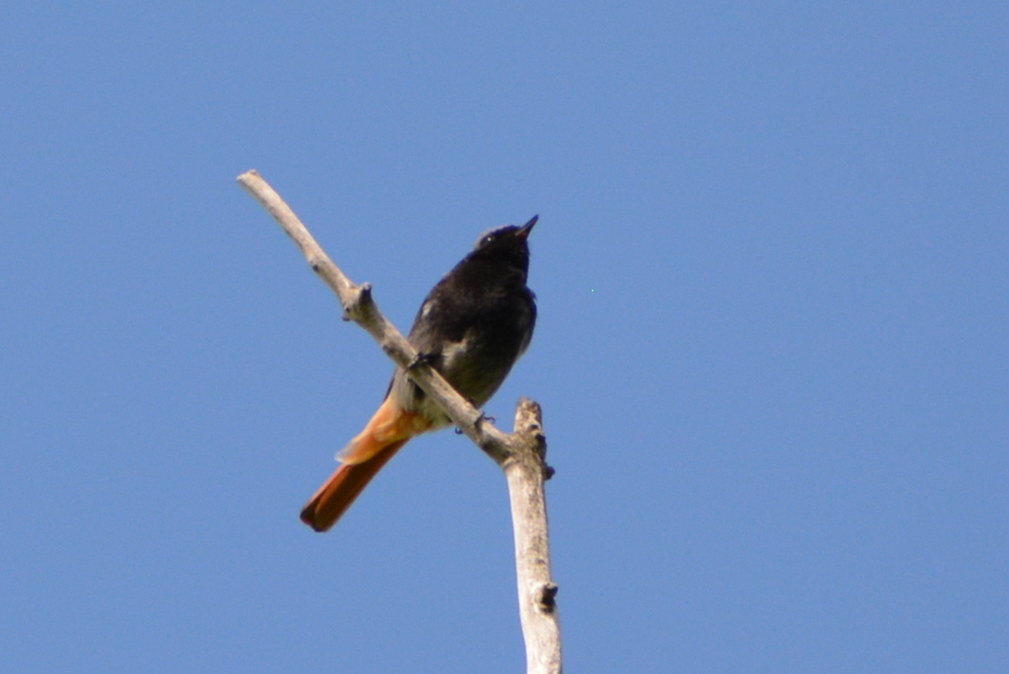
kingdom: Animalia
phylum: Chordata
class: Aves
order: Passeriformes
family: Muscicapidae
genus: Phoenicurus
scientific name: Phoenicurus ochruros
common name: Black redstart
